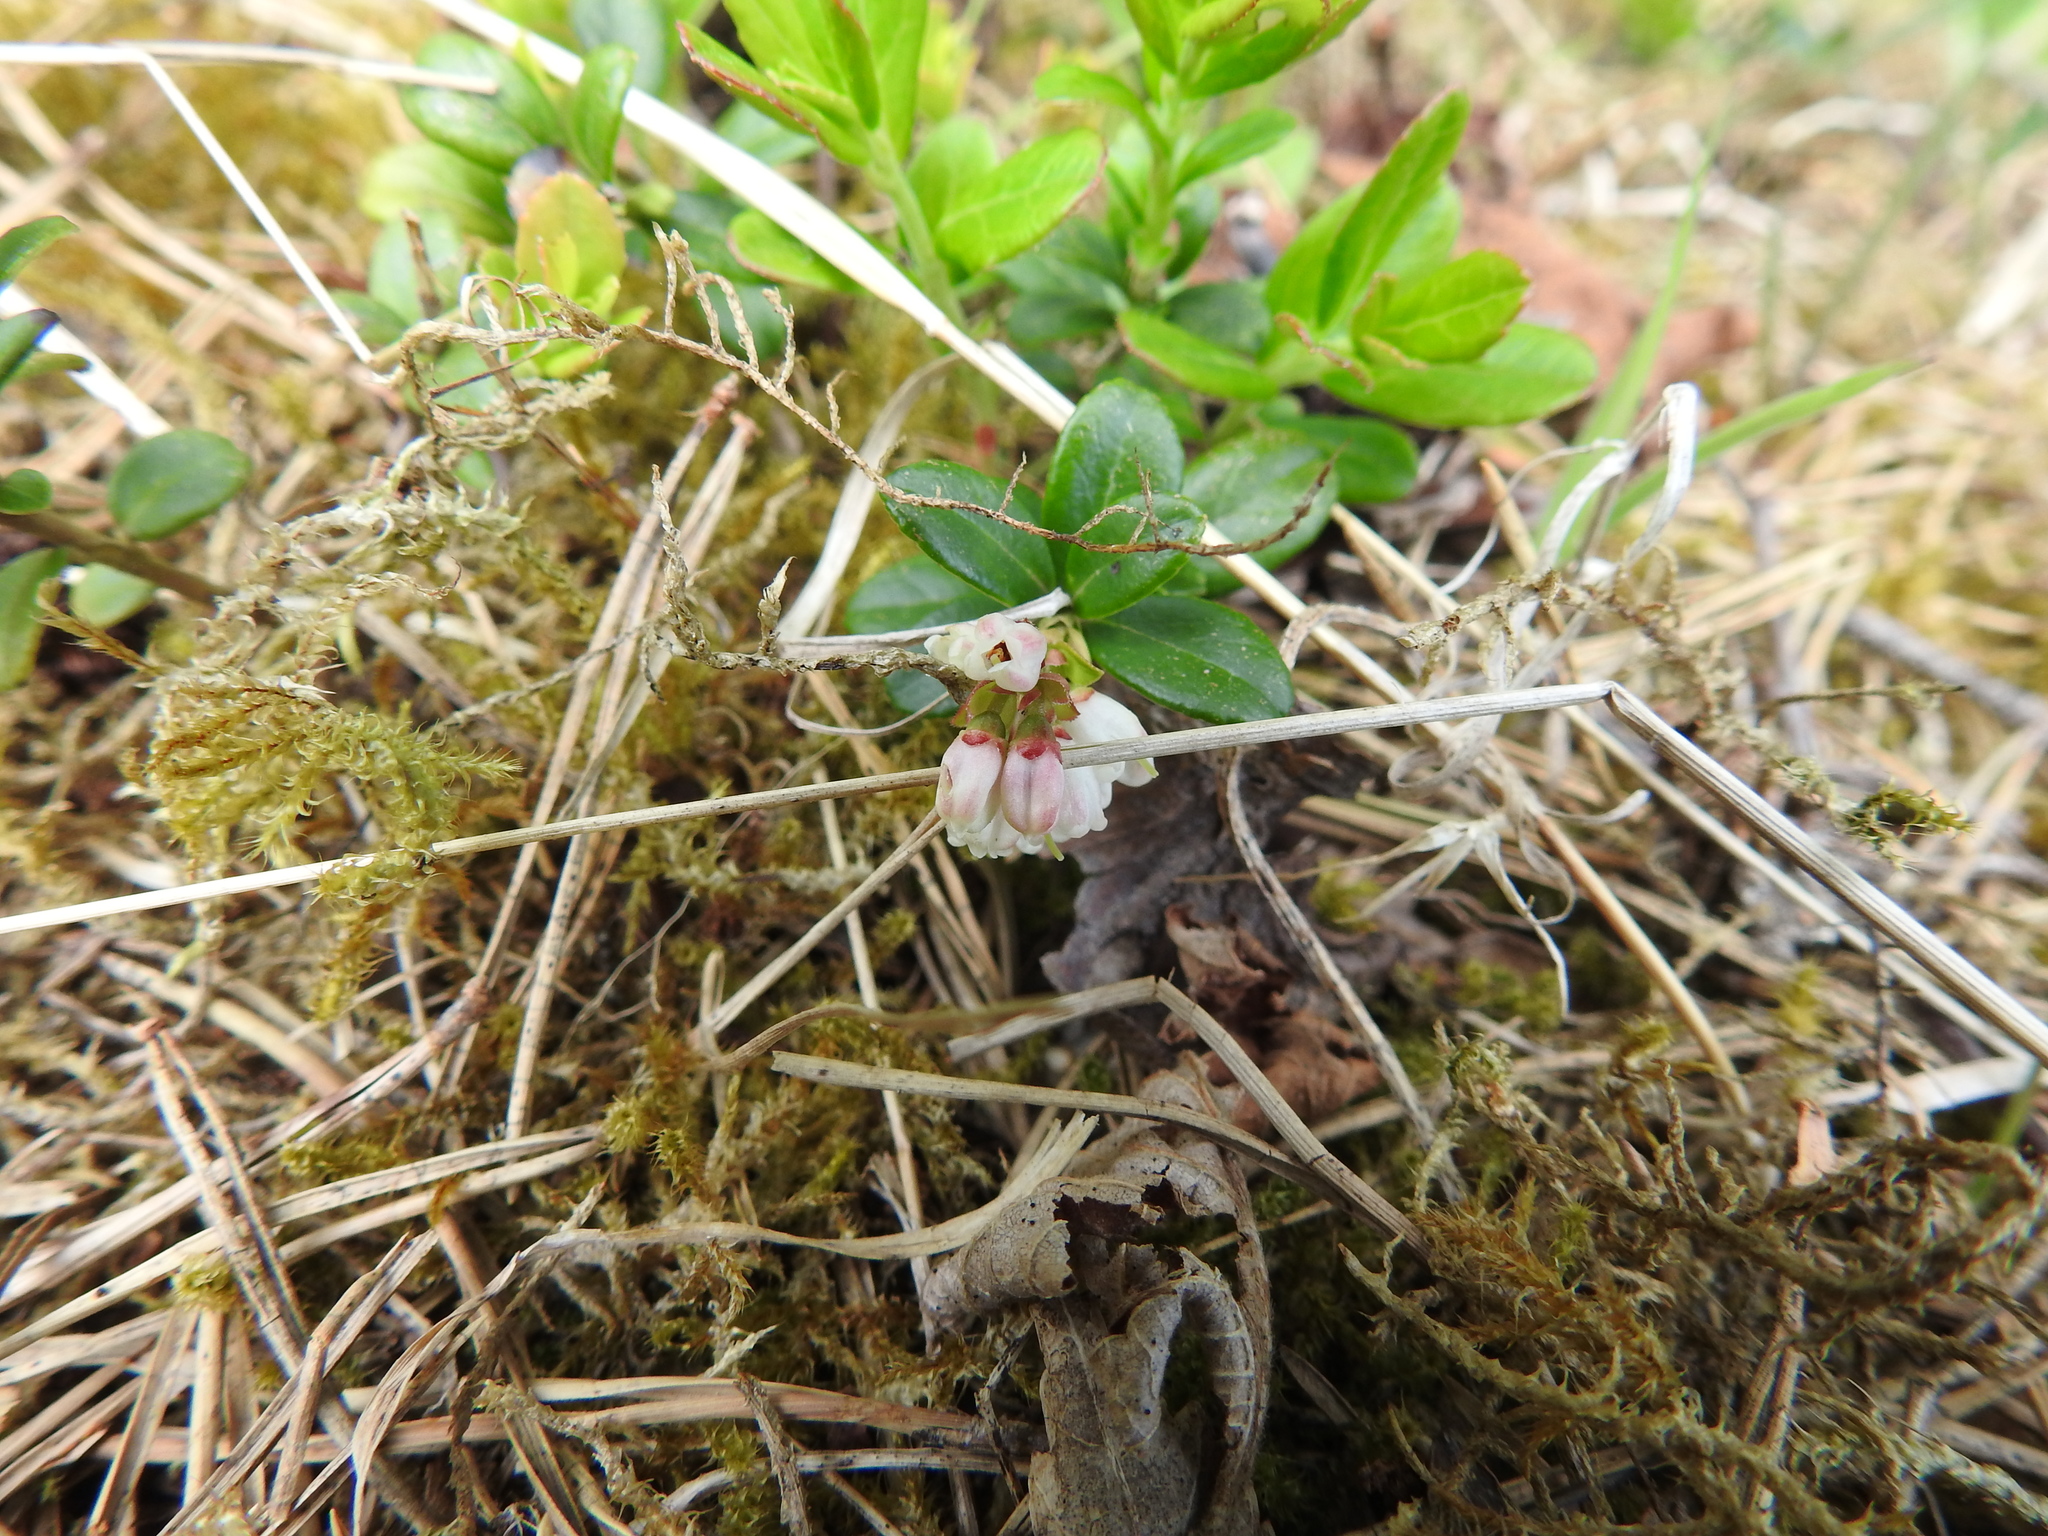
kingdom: Plantae
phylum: Tracheophyta
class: Magnoliopsida
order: Ericales
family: Ericaceae
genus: Vaccinium
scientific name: Vaccinium vitis-idaea
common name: Cowberry
